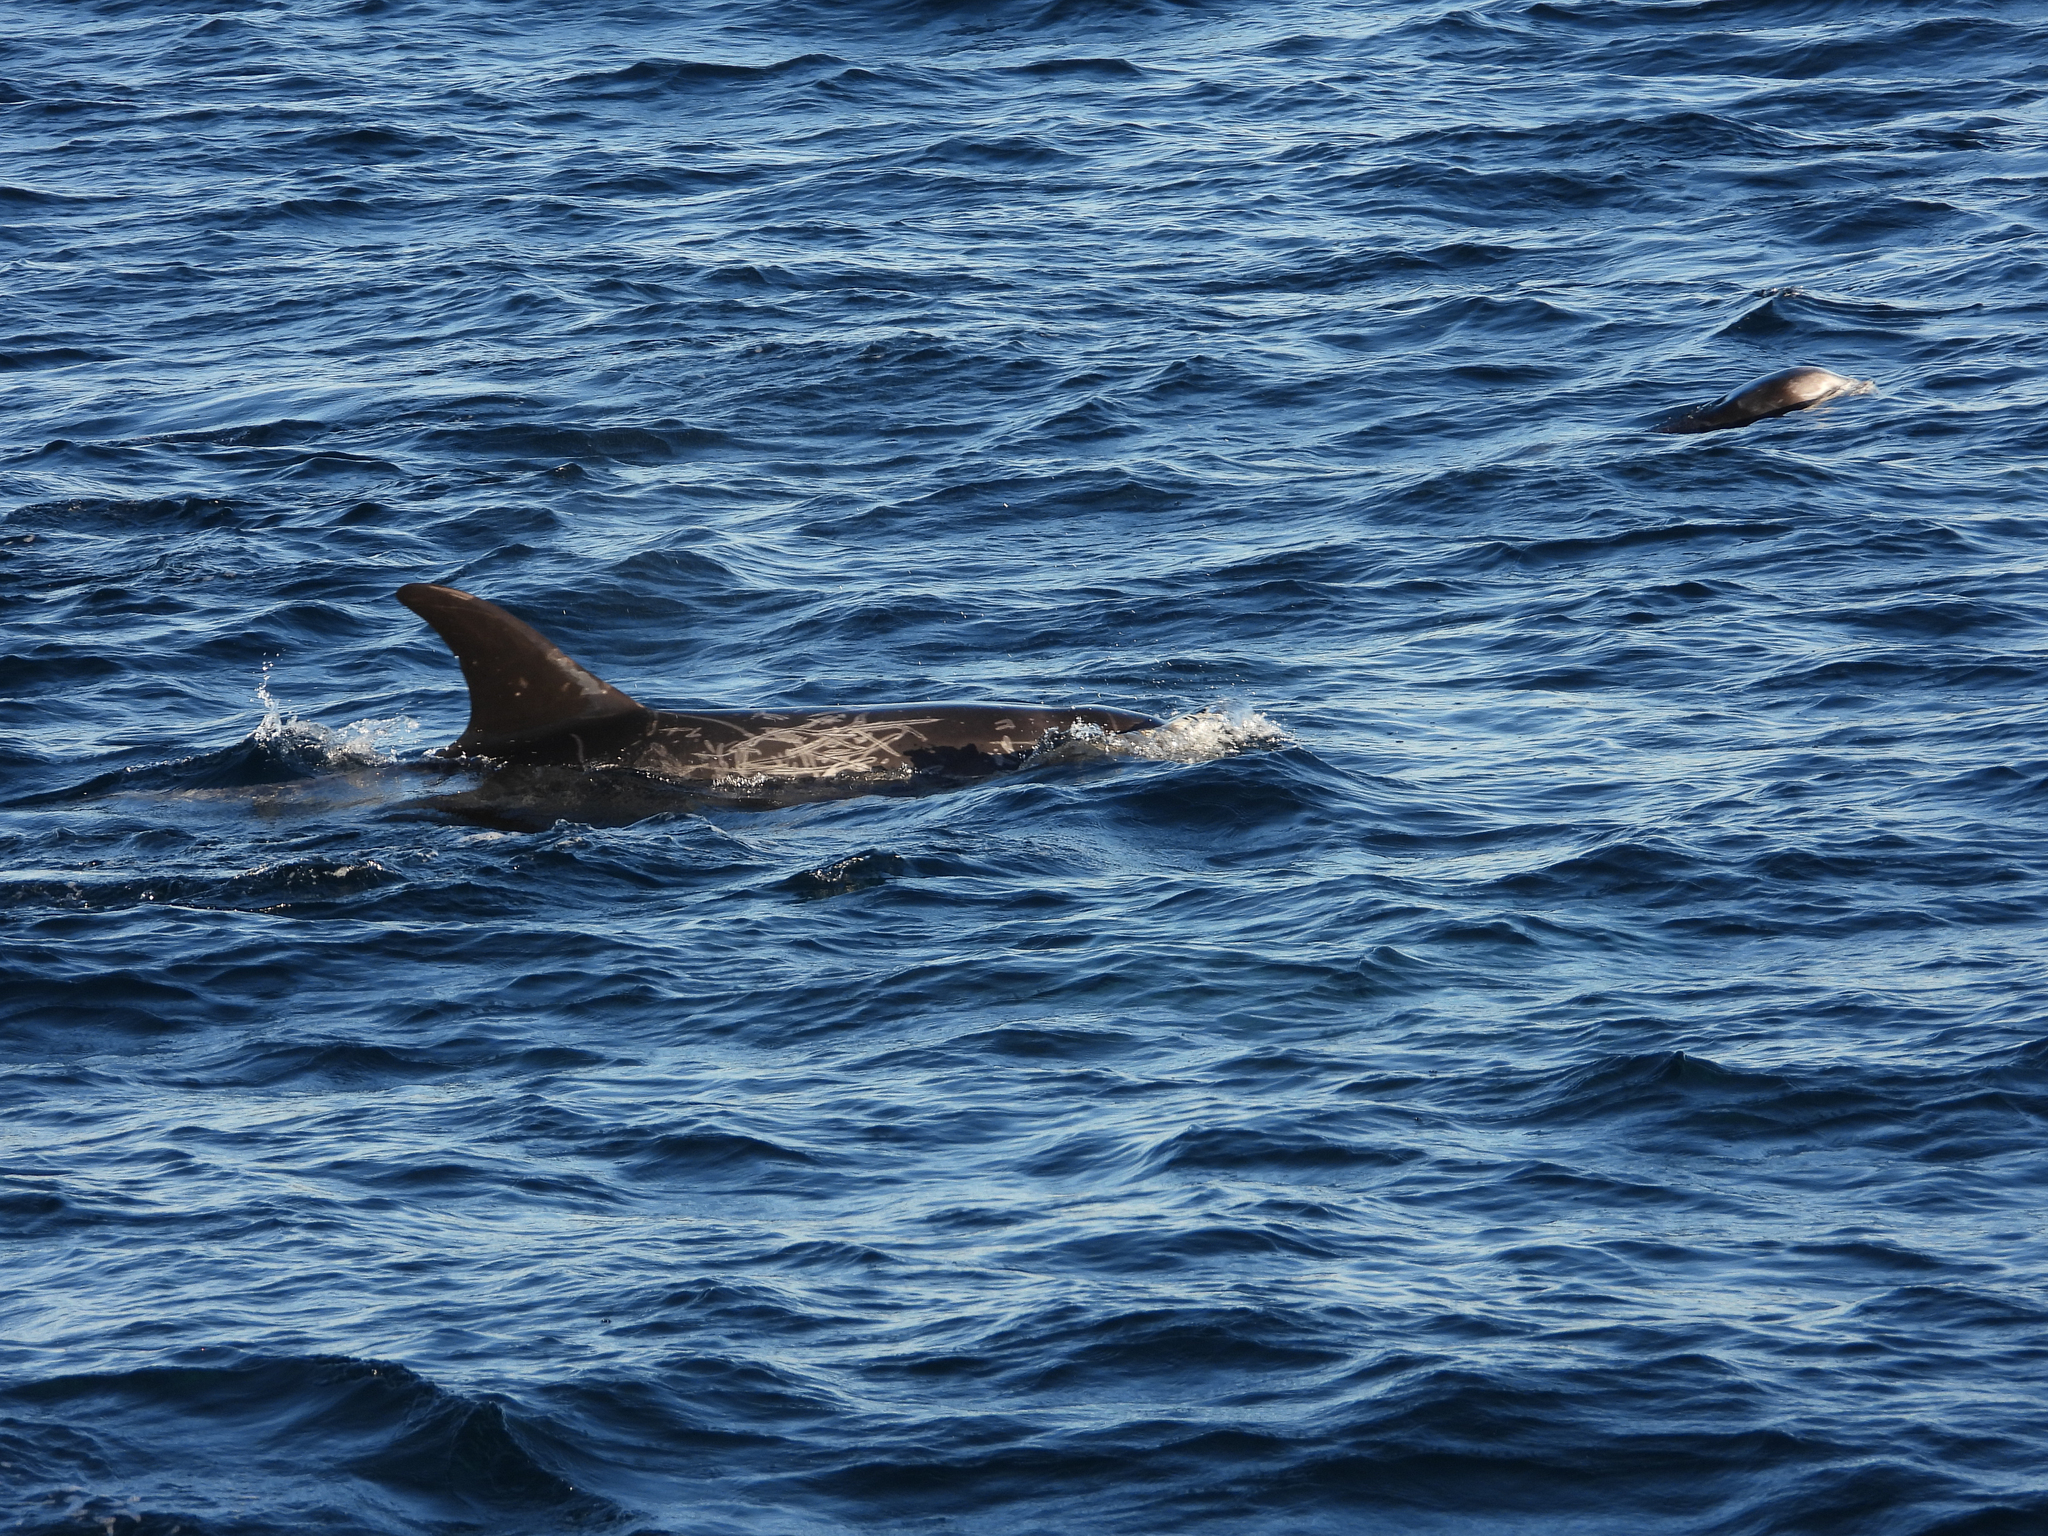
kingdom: Animalia
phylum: Chordata
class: Mammalia
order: Cetacea
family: Delphinidae
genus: Grampus
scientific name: Grampus griseus
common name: Risso's dolphin
